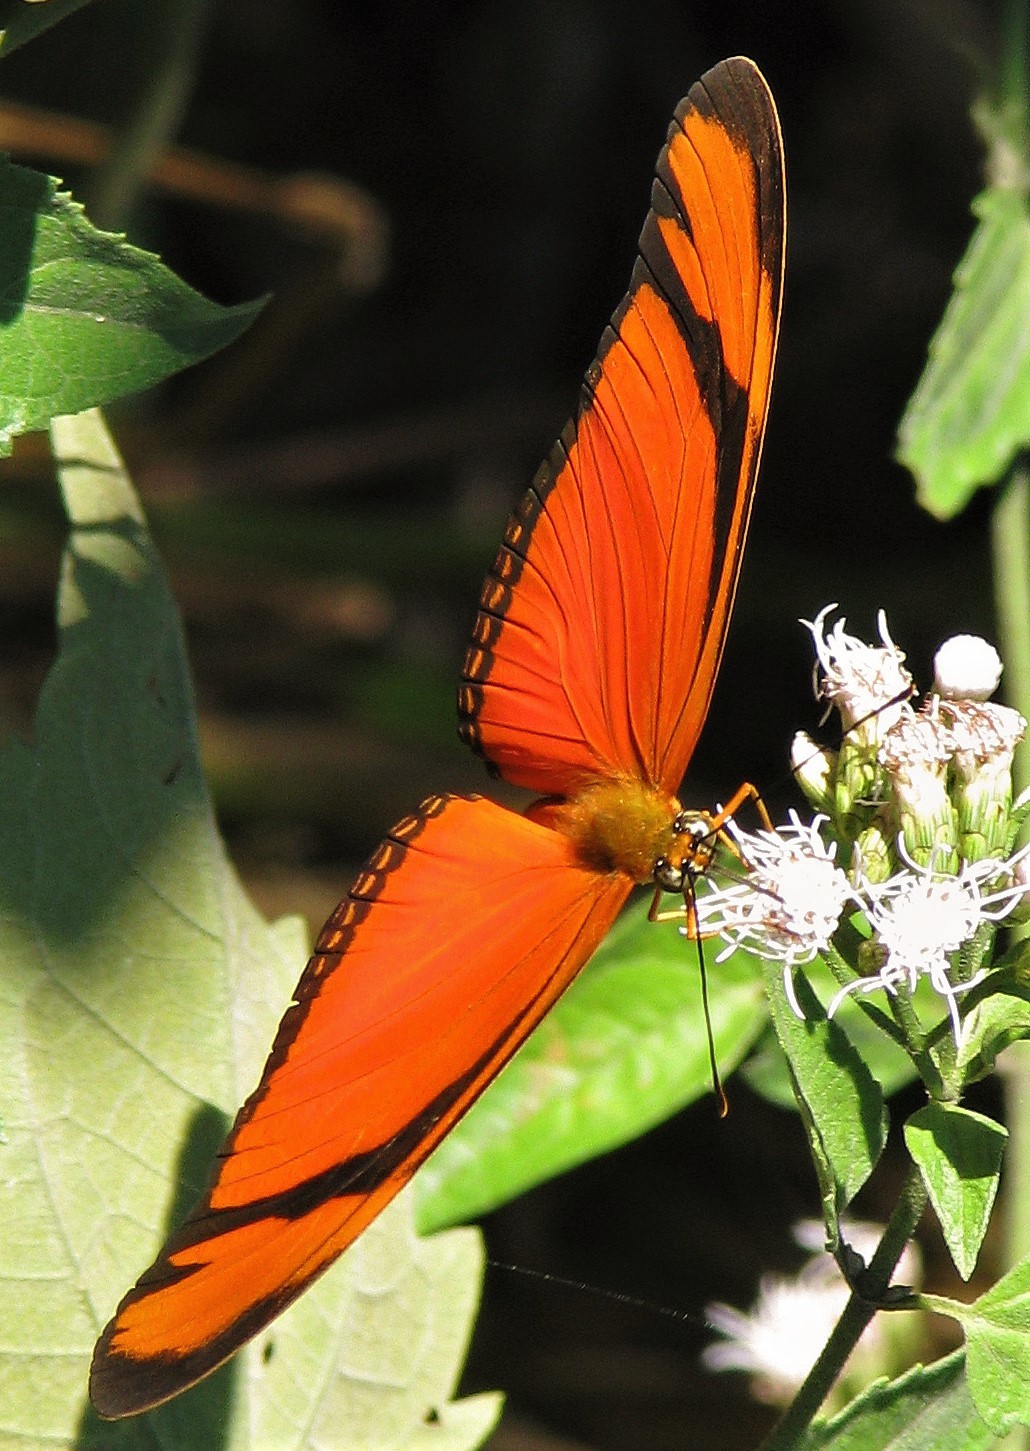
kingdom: Animalia
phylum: Arthropoda
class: Insecta
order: Lepidoptera
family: Nymphalidae
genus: Dryas
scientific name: Dryas iulia
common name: Flambeau
